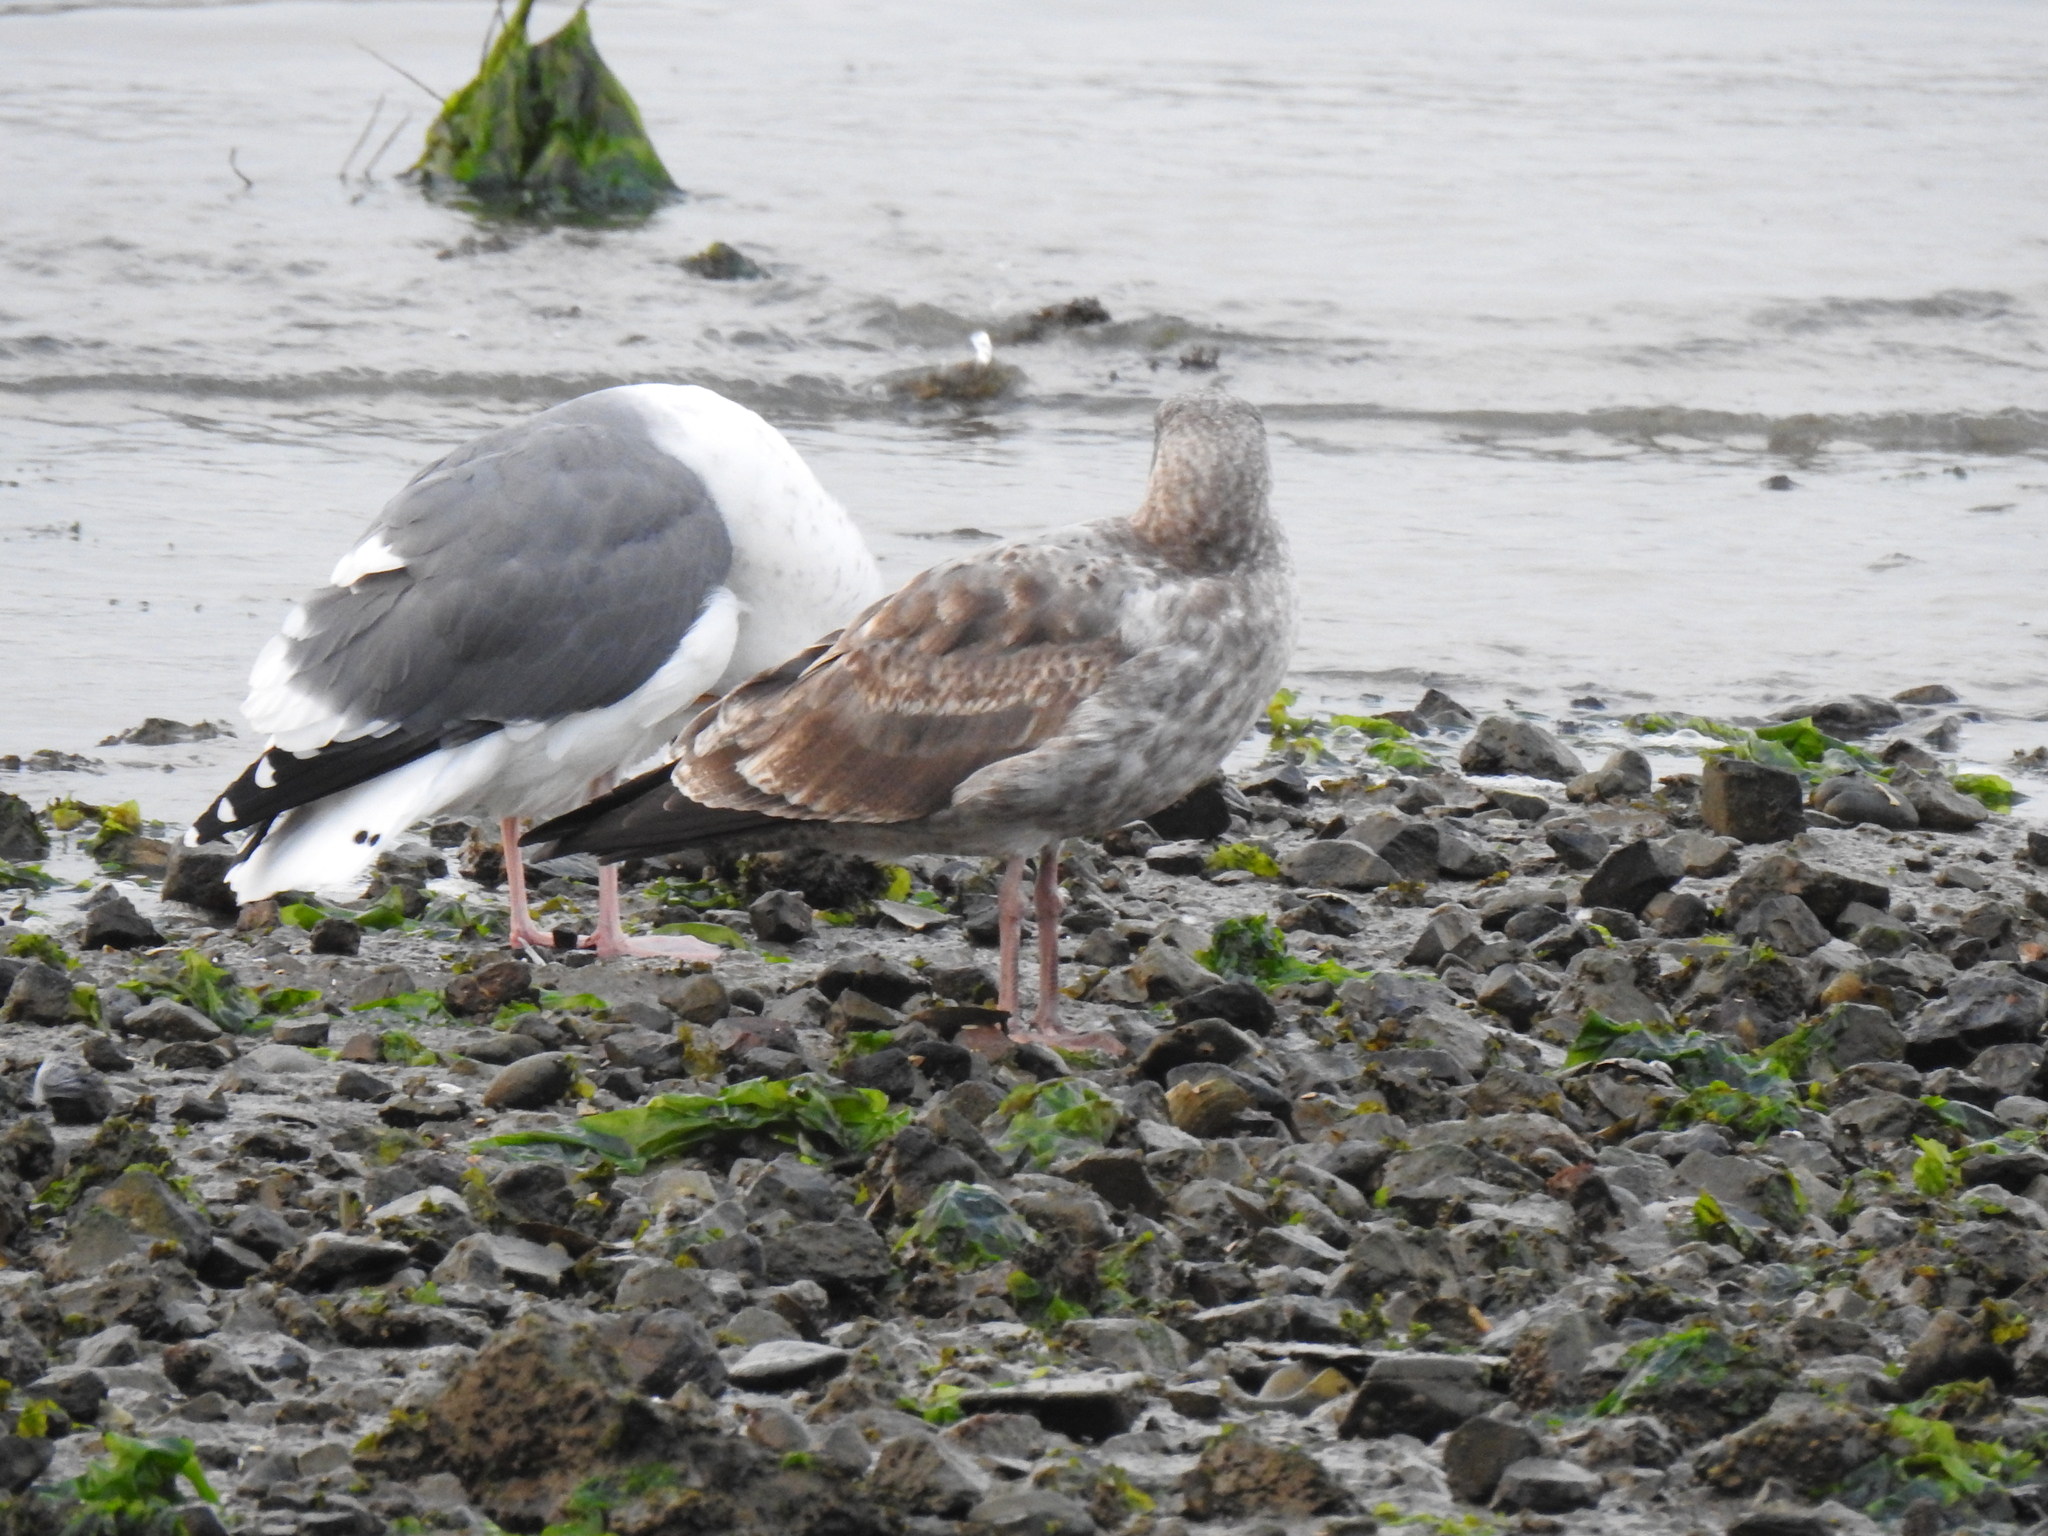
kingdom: Animalia
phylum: Chordata
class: Aves
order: Charadriiformes
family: Laridae
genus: Larus
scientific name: Larus occidentalis
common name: Western gull
